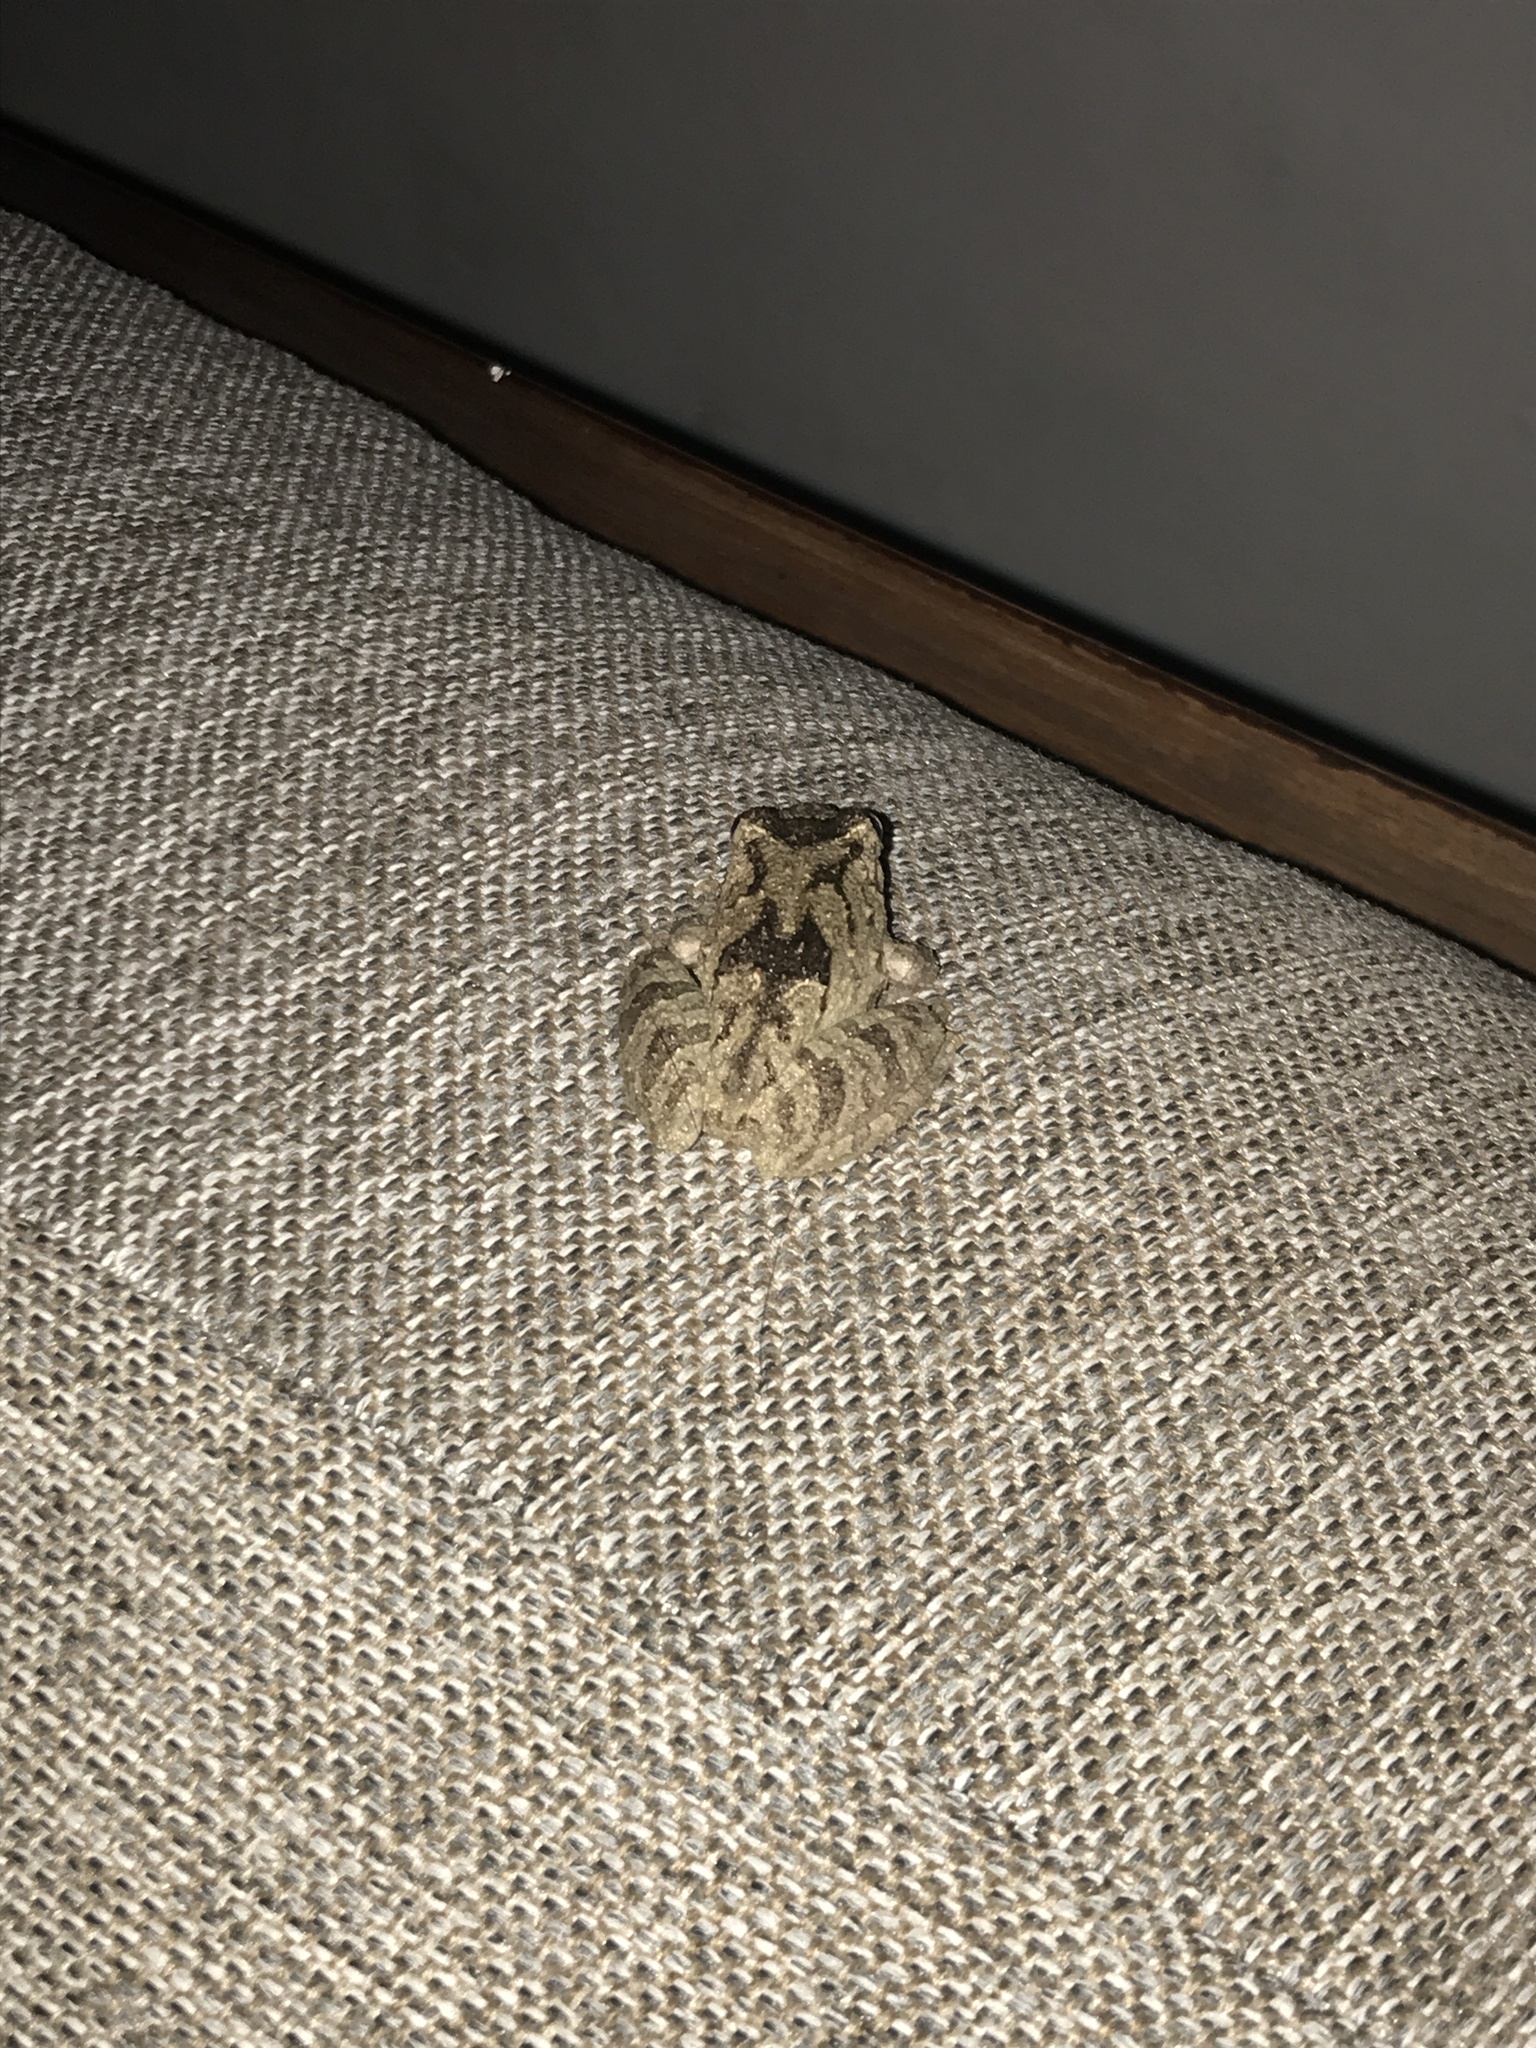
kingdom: Animalia
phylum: Chordata
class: Amphibia
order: Anura
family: Hylidae
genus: Scinax
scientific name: Scinax nasicus
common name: Lesser snouted treefrog
